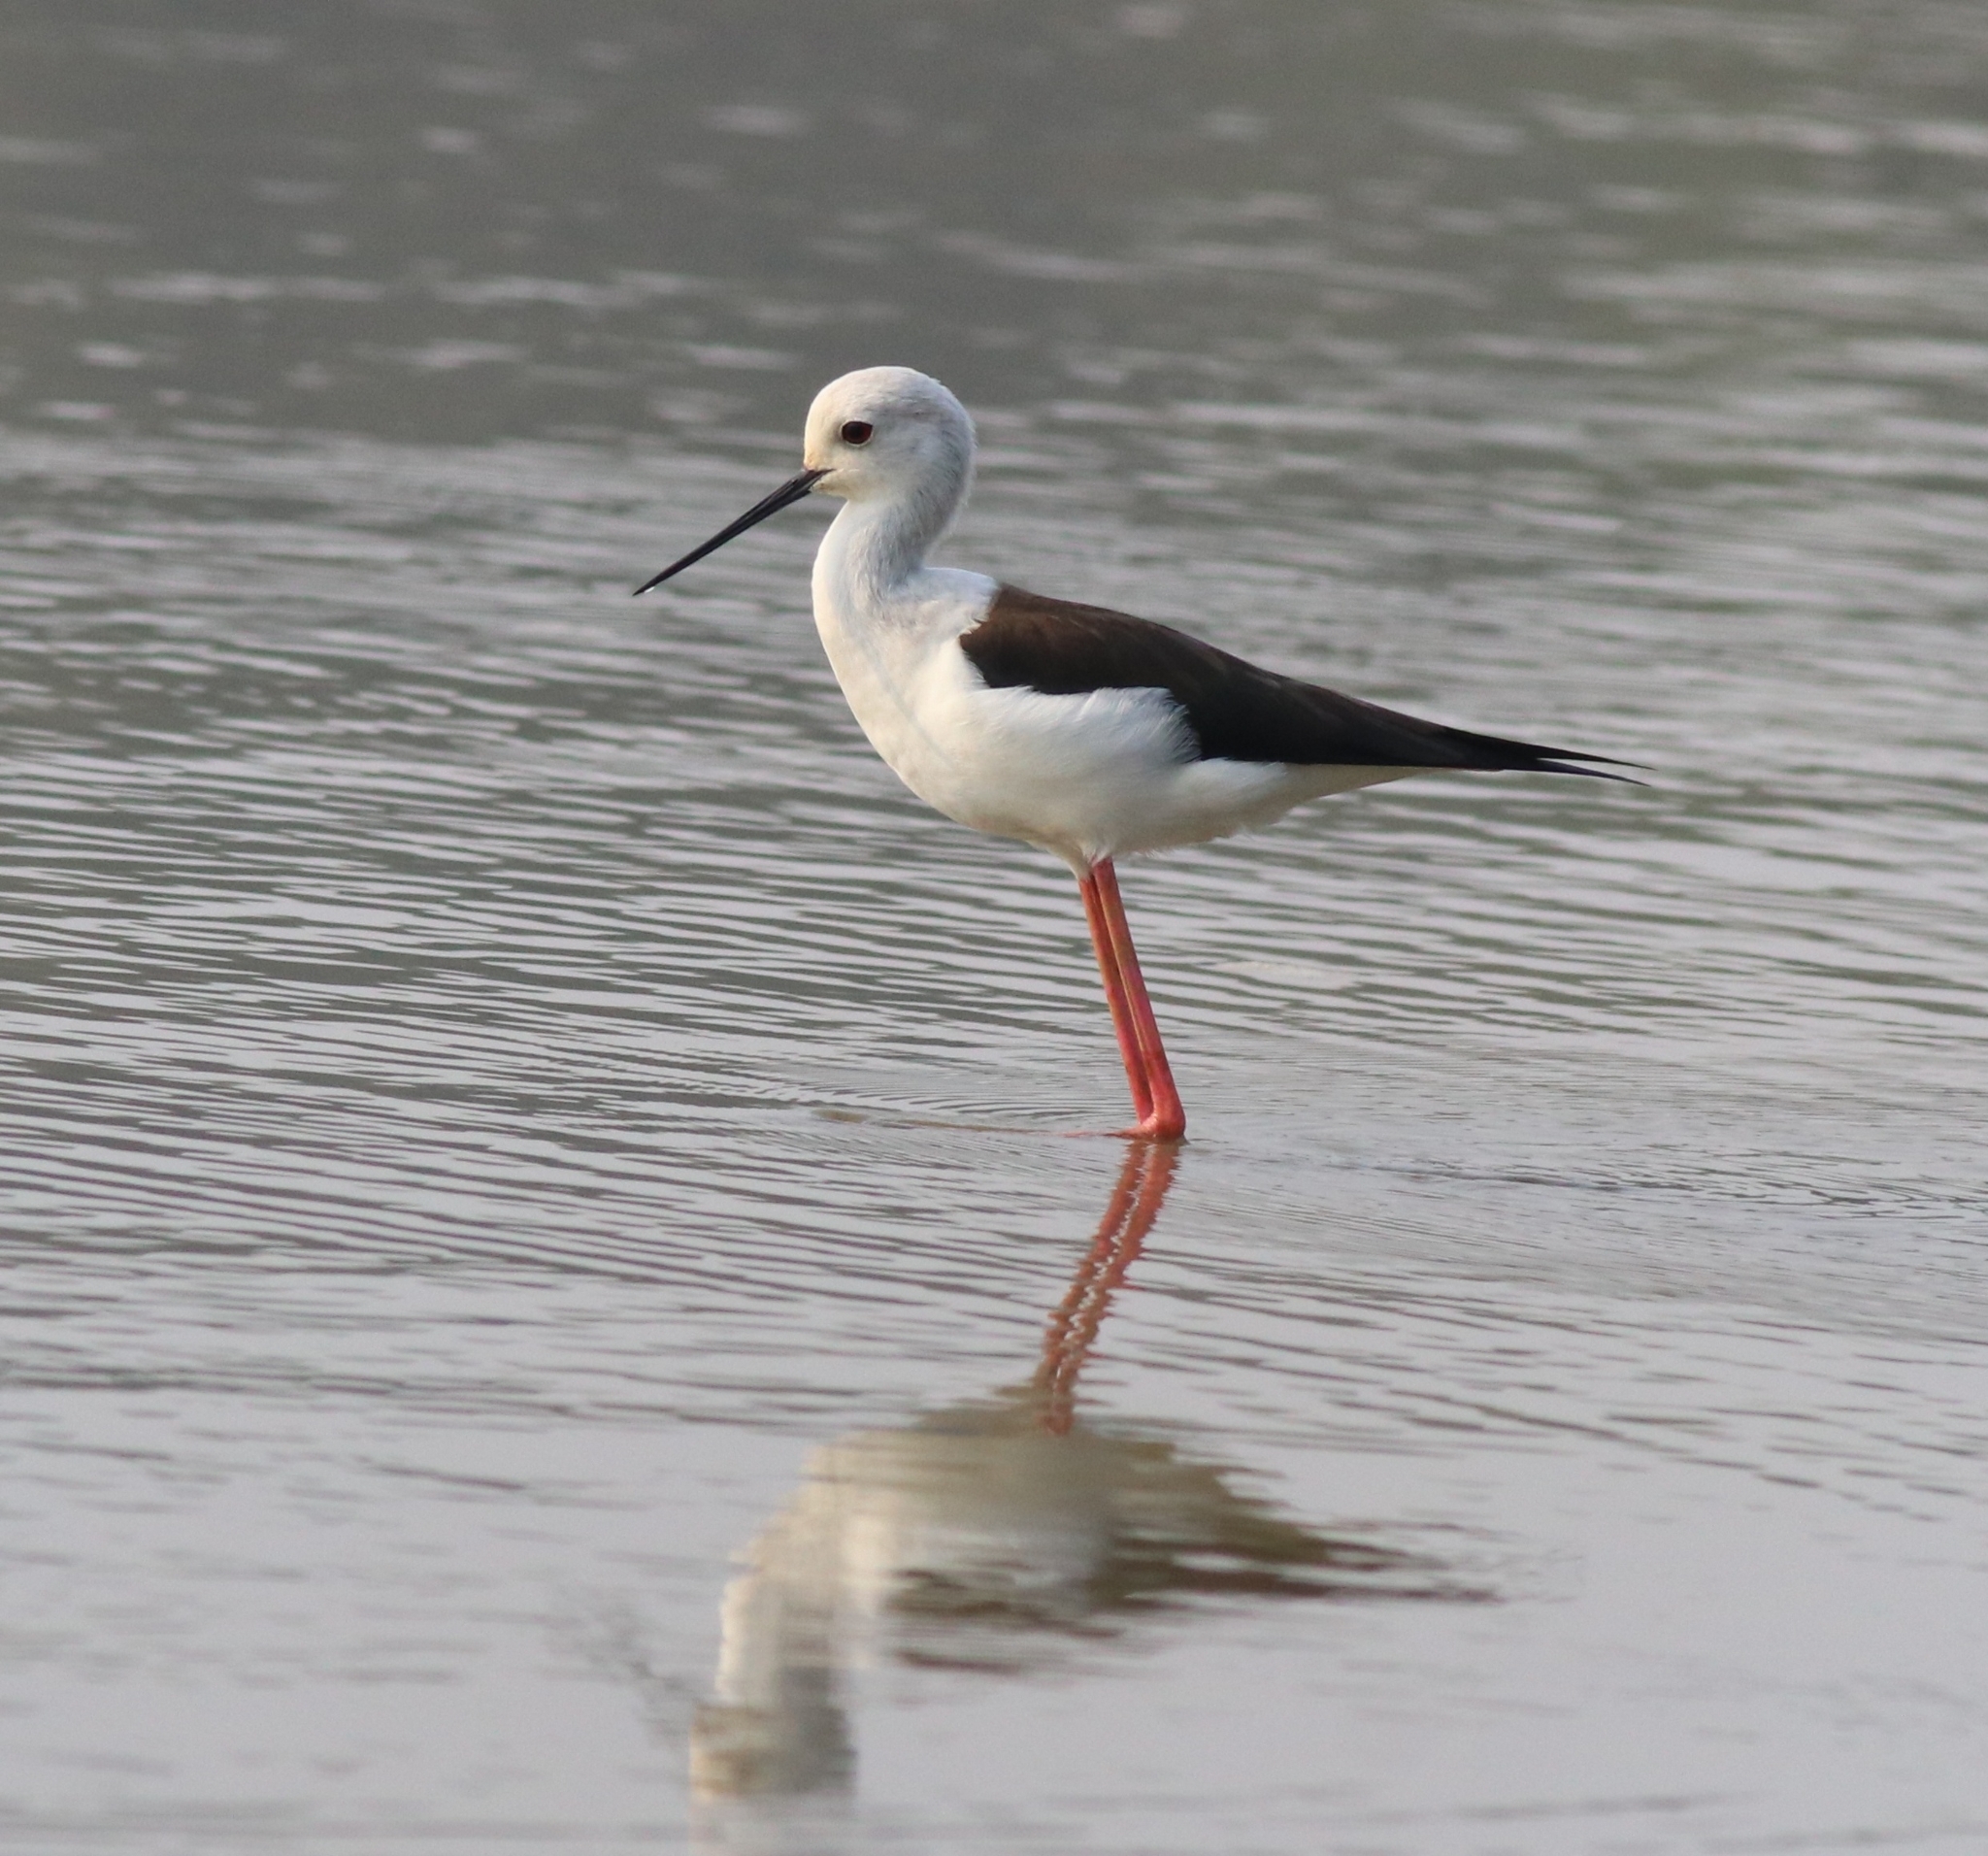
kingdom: Animalia
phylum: Chordata
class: Aves
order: Charadriiformes
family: Recurvirostridae
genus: Himantopus
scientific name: Himantopus himantopus
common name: Black-winged stilt
